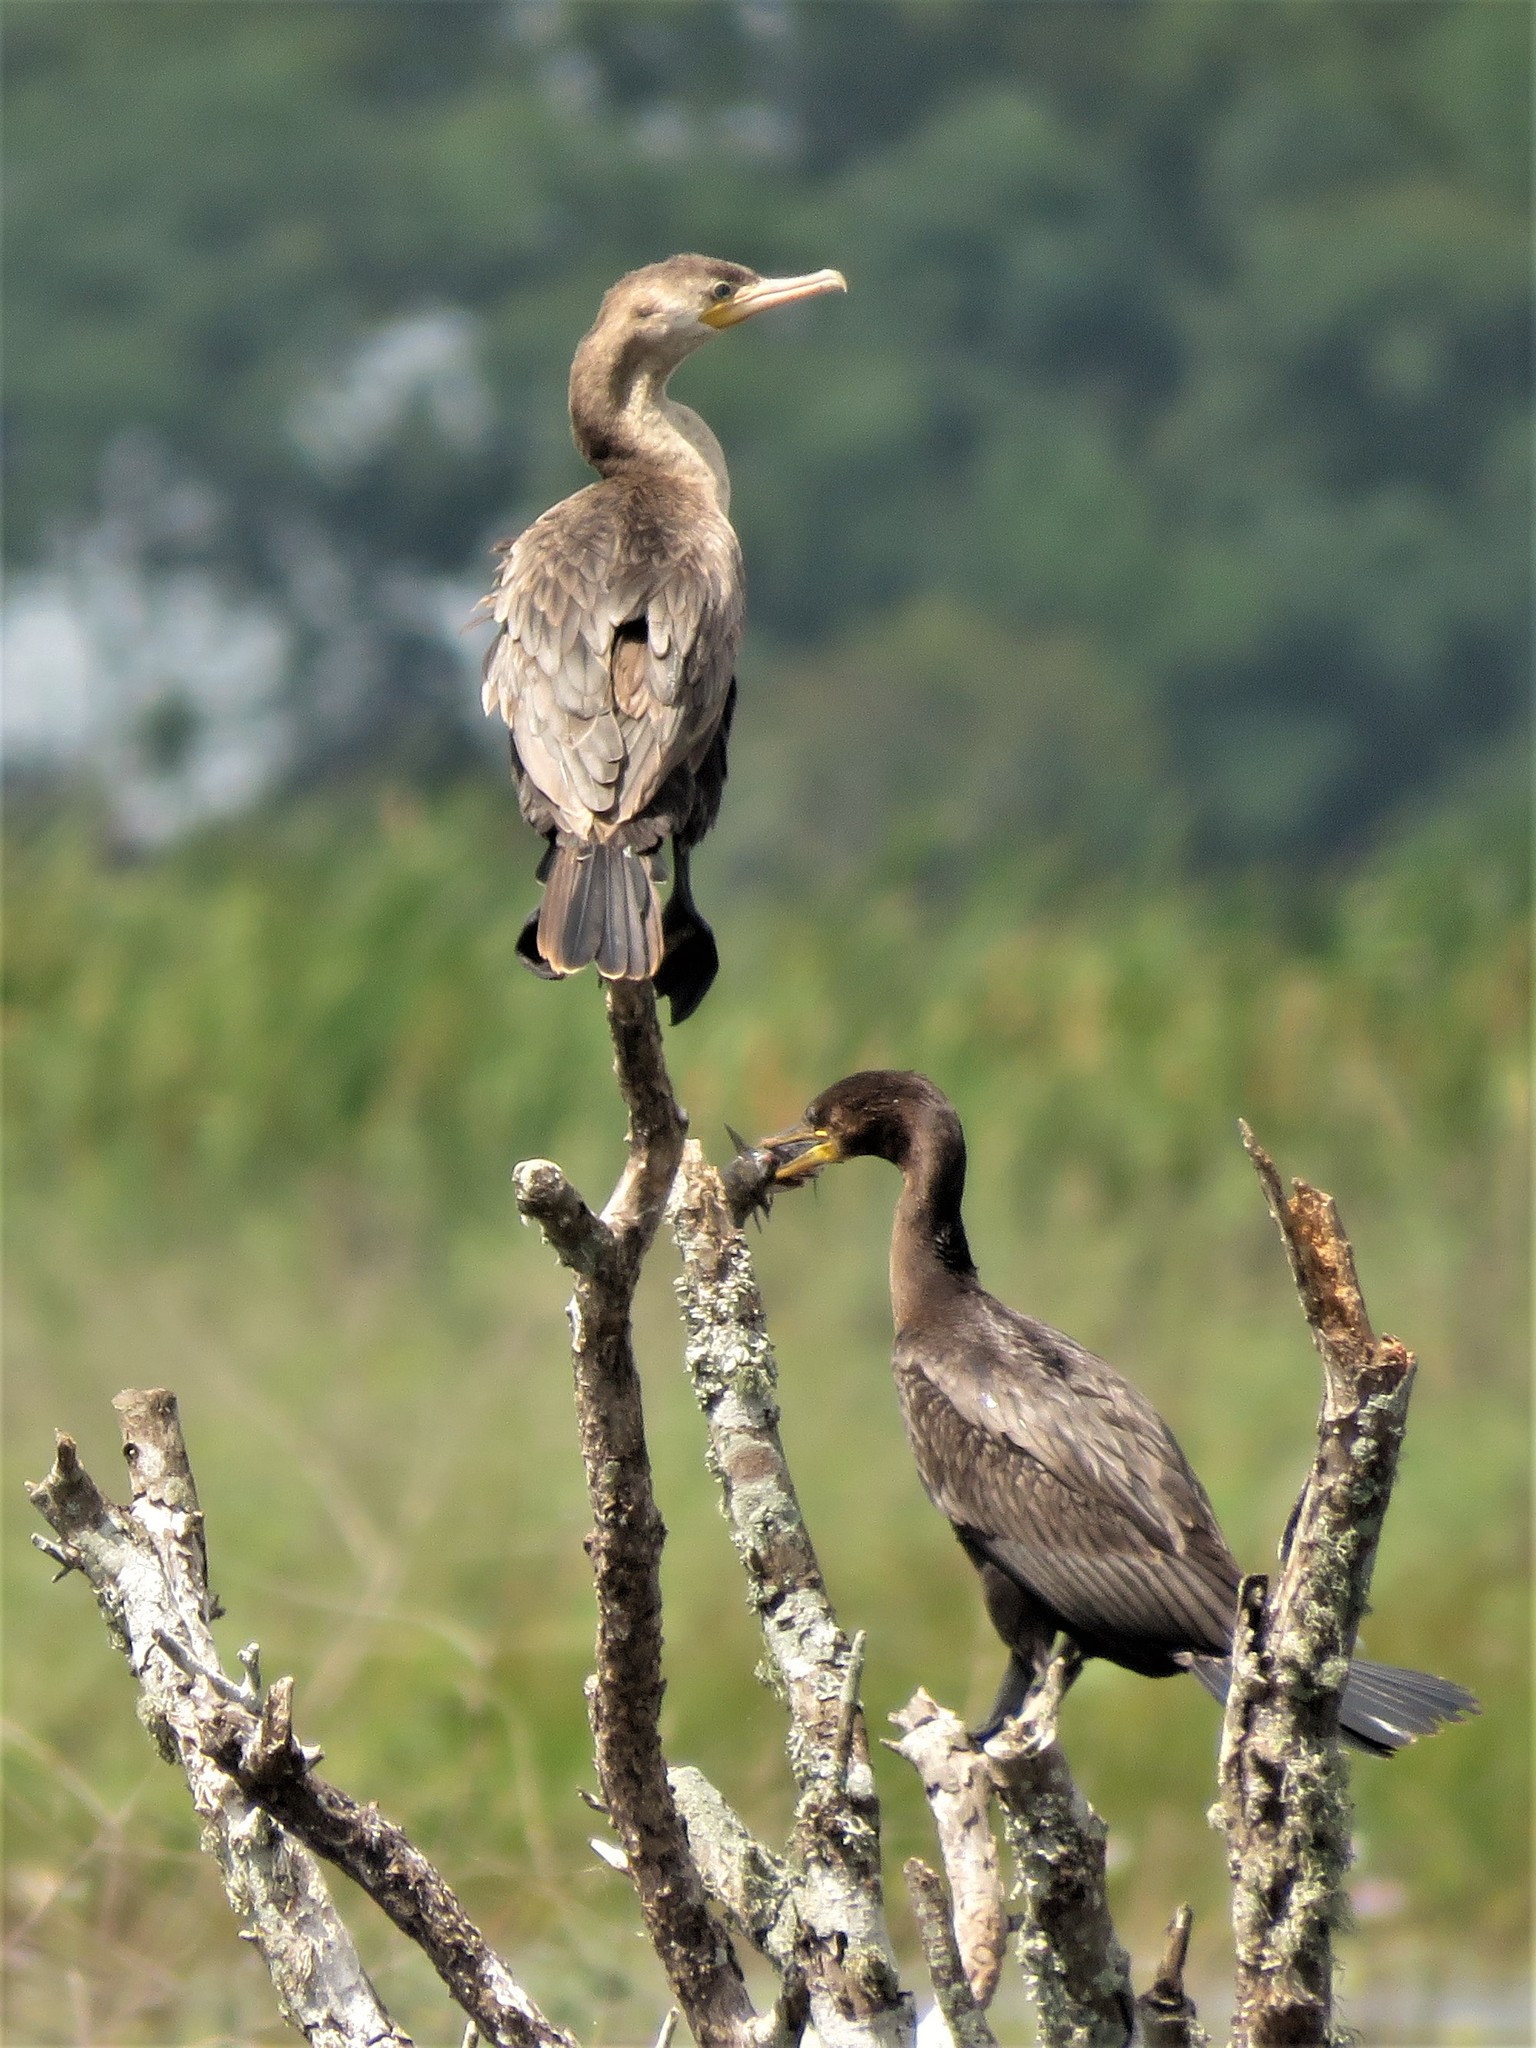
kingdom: Animalia
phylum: Chordata
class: Aves
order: Suliformes
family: Phalacrocoracidae
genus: Phalacrocorax
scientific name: Phalacrocorax brasilianus
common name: Neotropic cormorant
